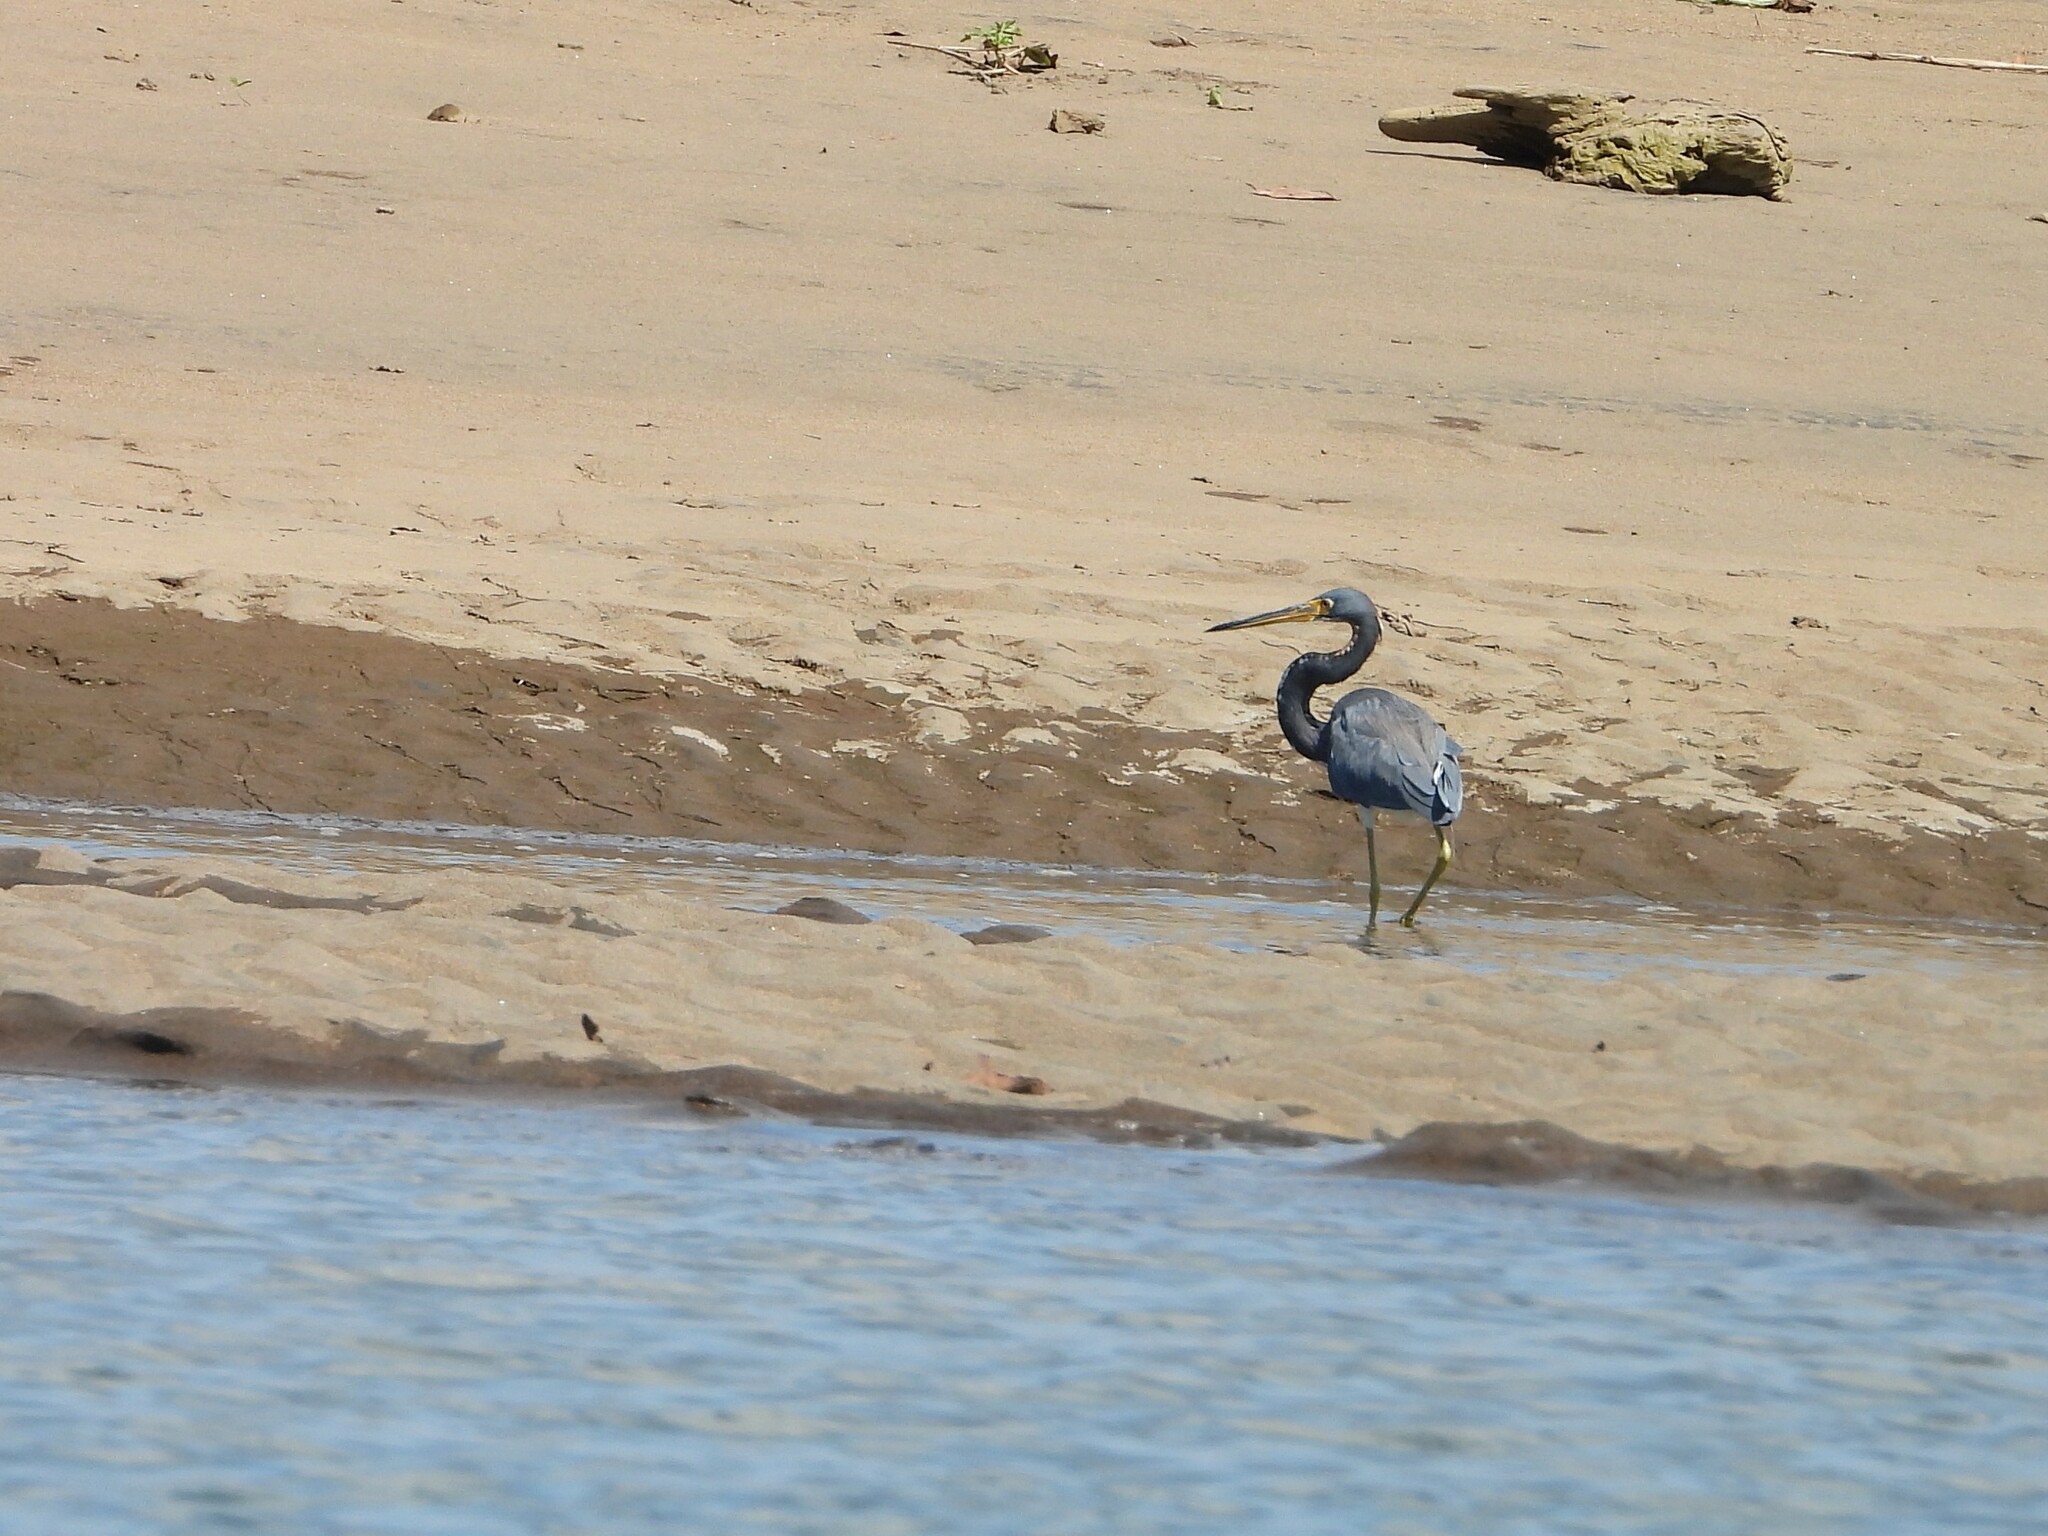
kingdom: Animalia
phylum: Chordata
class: Aves
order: Pelecaniformes
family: Ardeidae
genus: Egretta
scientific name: Egretta tricolor
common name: Tricolored heron
